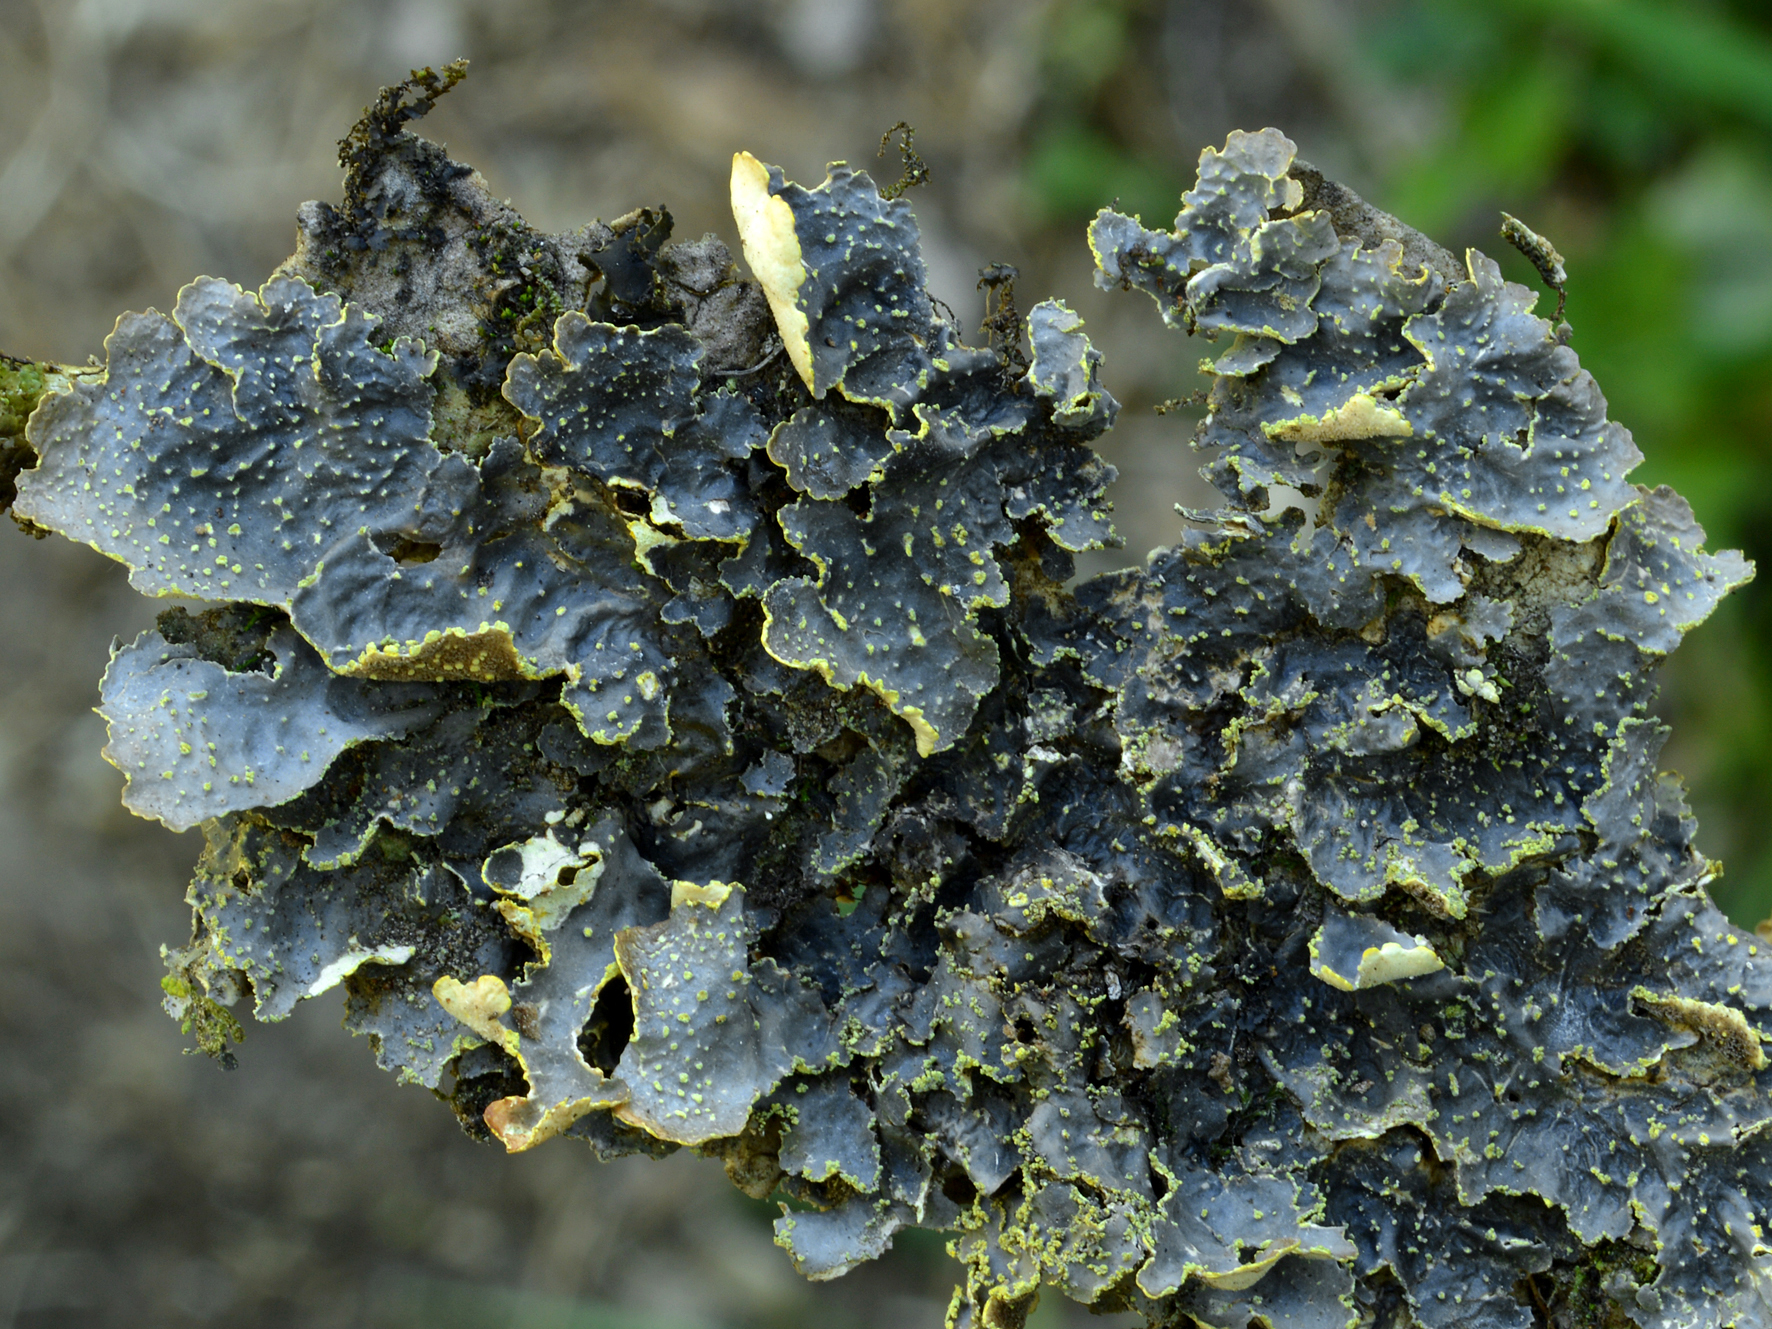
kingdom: Fungi
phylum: Ascomycota
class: Lecanoromycetes
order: Peltigerales
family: Lobariaceae
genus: Pseudocyphellaria
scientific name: Pseudocyphellaria crocata
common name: Golden specklebelly
